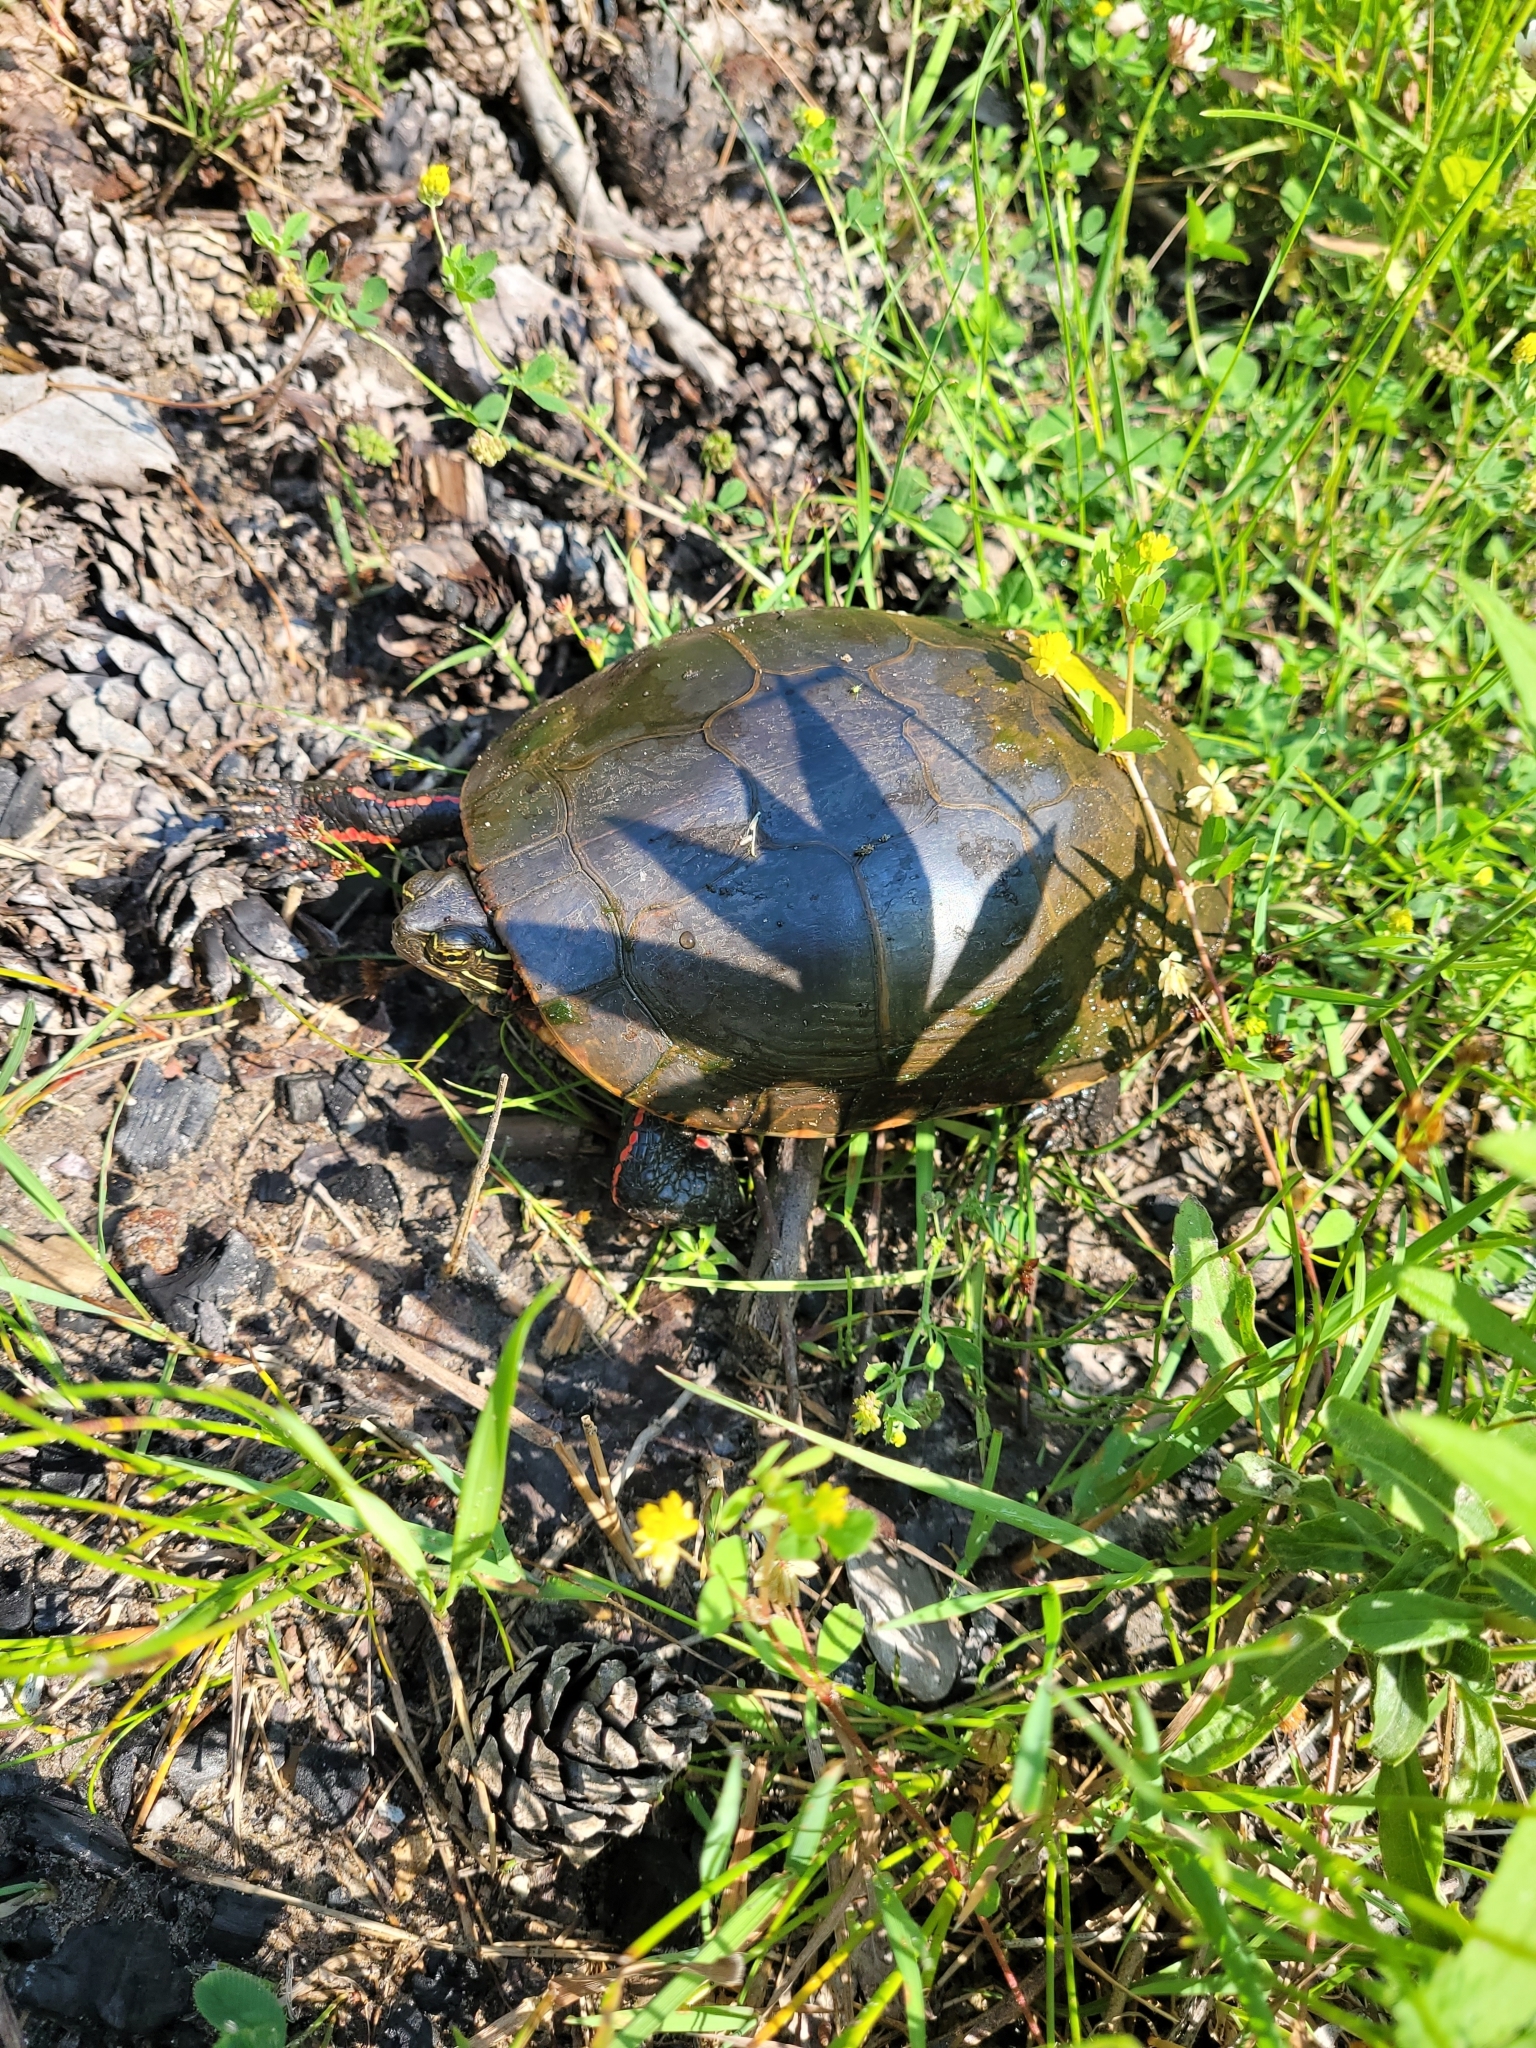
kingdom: Animalia
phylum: Chordata
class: Testudines
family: Emydidae
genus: Chrysemys
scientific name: Chrysemys picta
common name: Painted turtle
